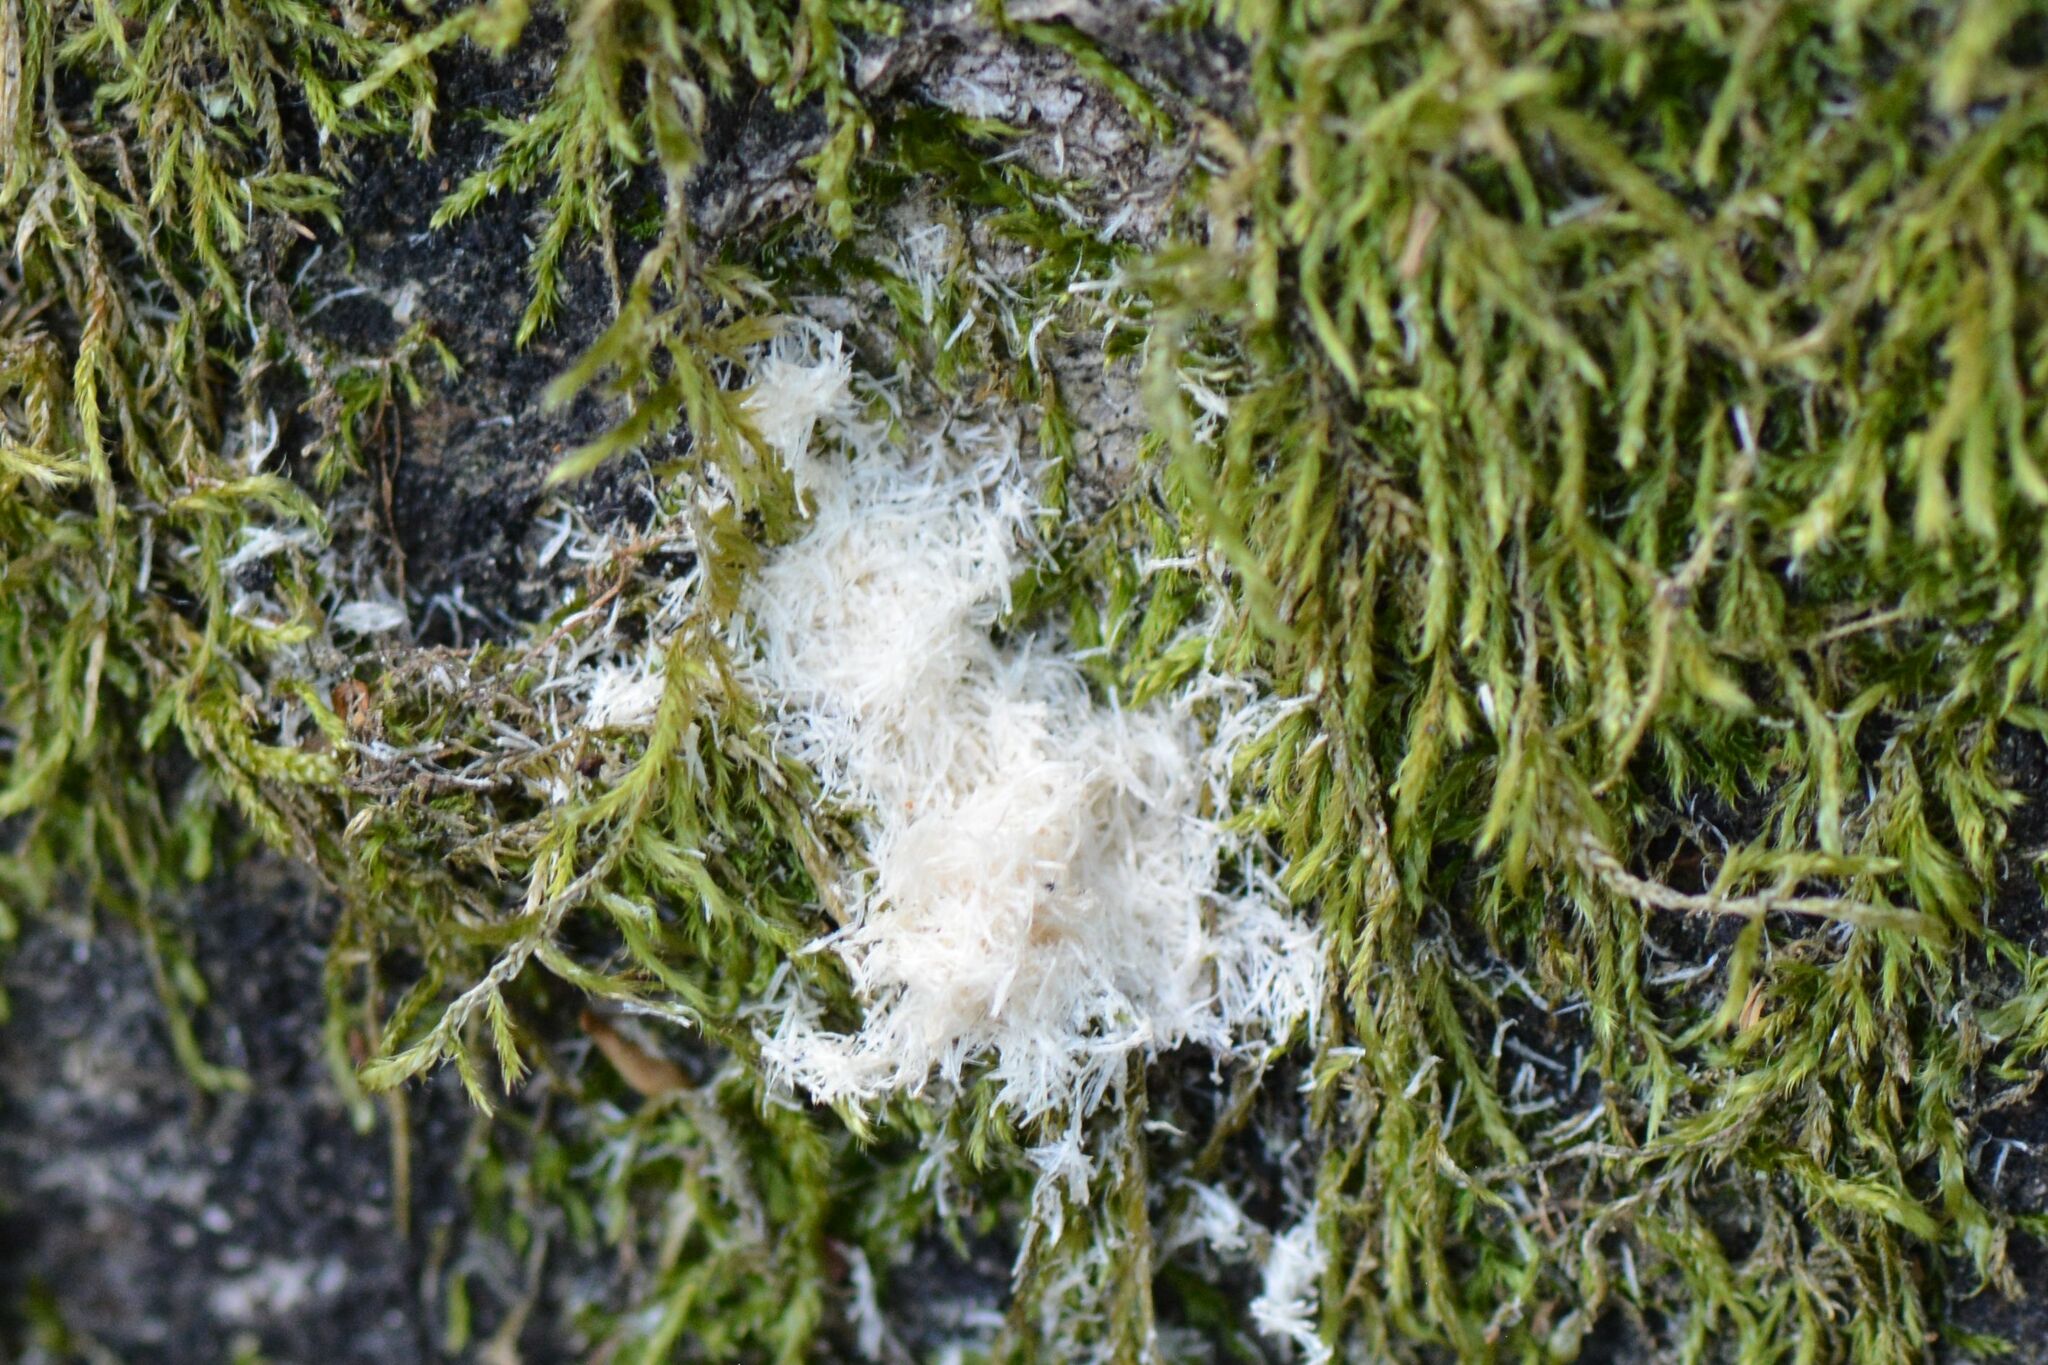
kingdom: Animalia
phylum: Arthropoda
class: Insecta
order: Coleoptera
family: Curculionidae
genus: Platypus
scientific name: Platypus cylindrus
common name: Pinhole borer
